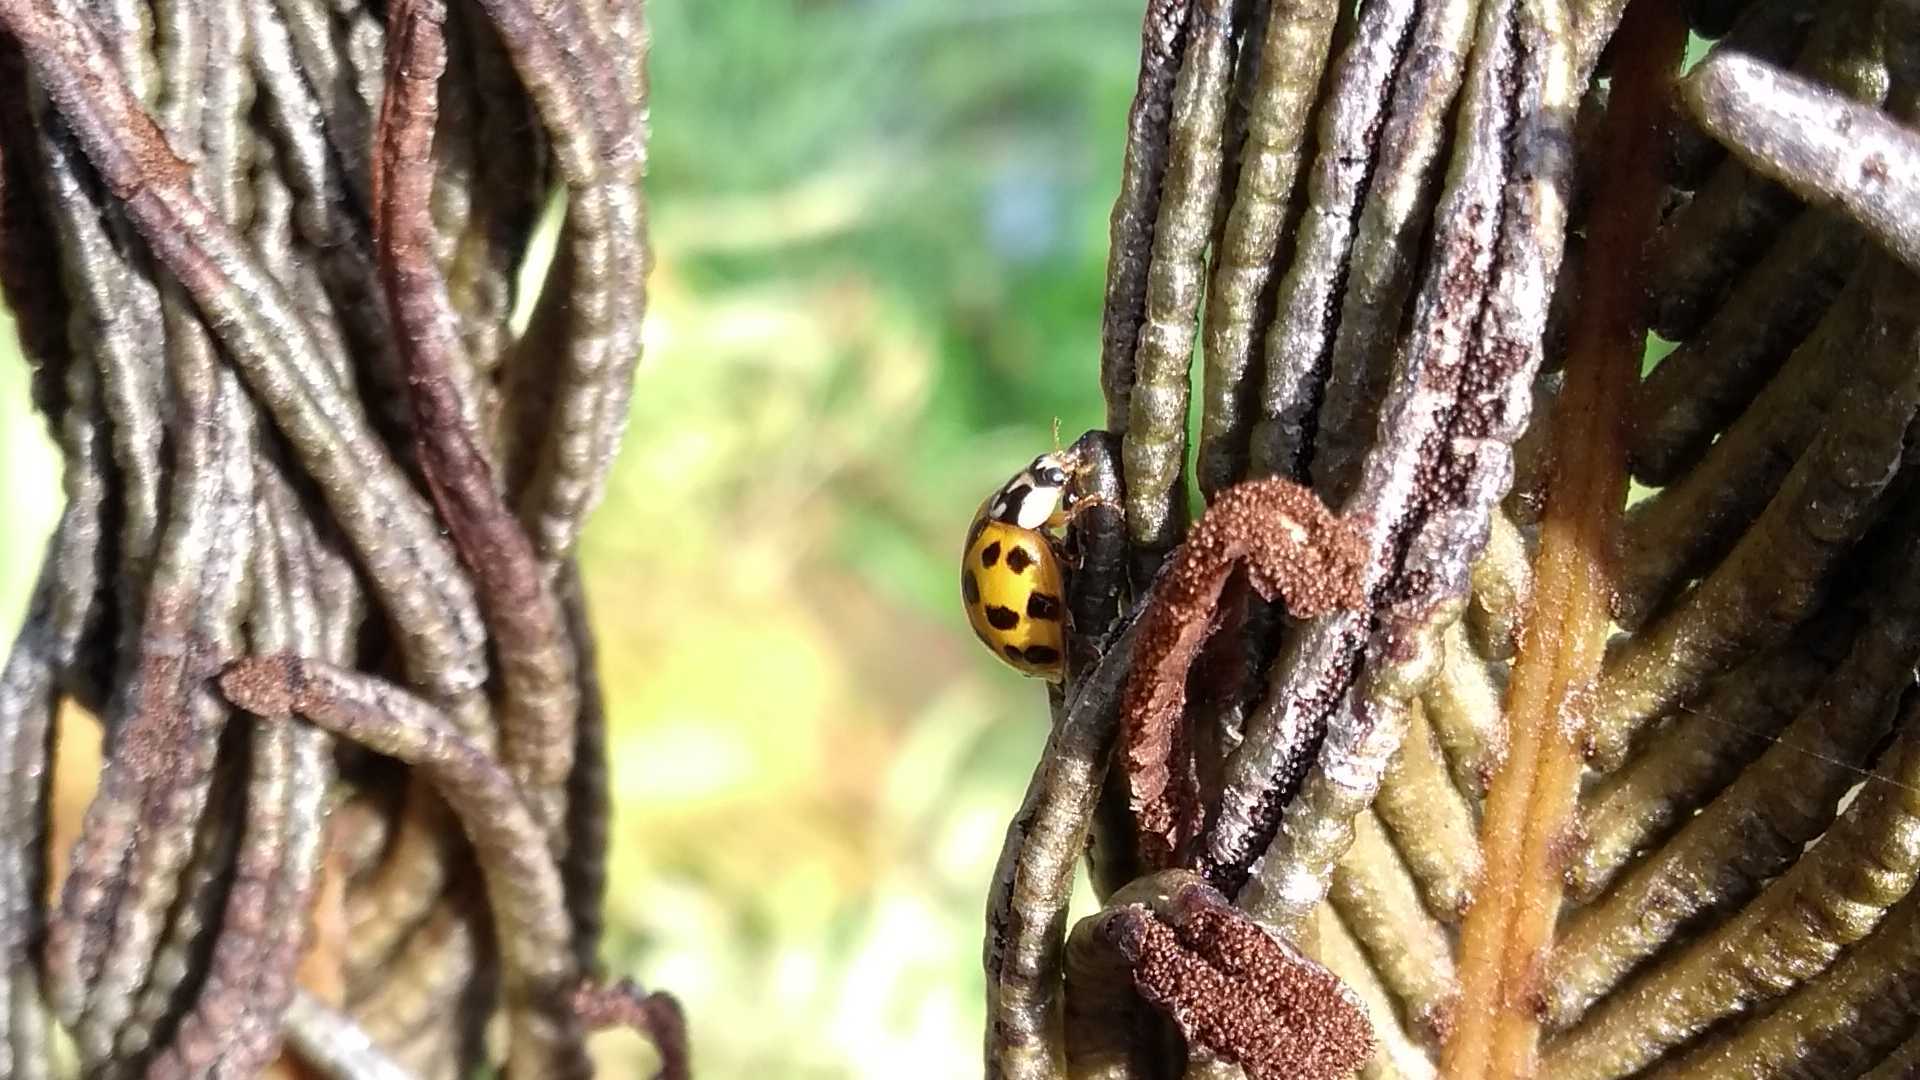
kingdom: Animalia
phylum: Arthropoda
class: Insecta
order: Coleoptera
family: Coccinellidae
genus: Harmonia
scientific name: Harmonia axyridis
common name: Harlequin ladybird
